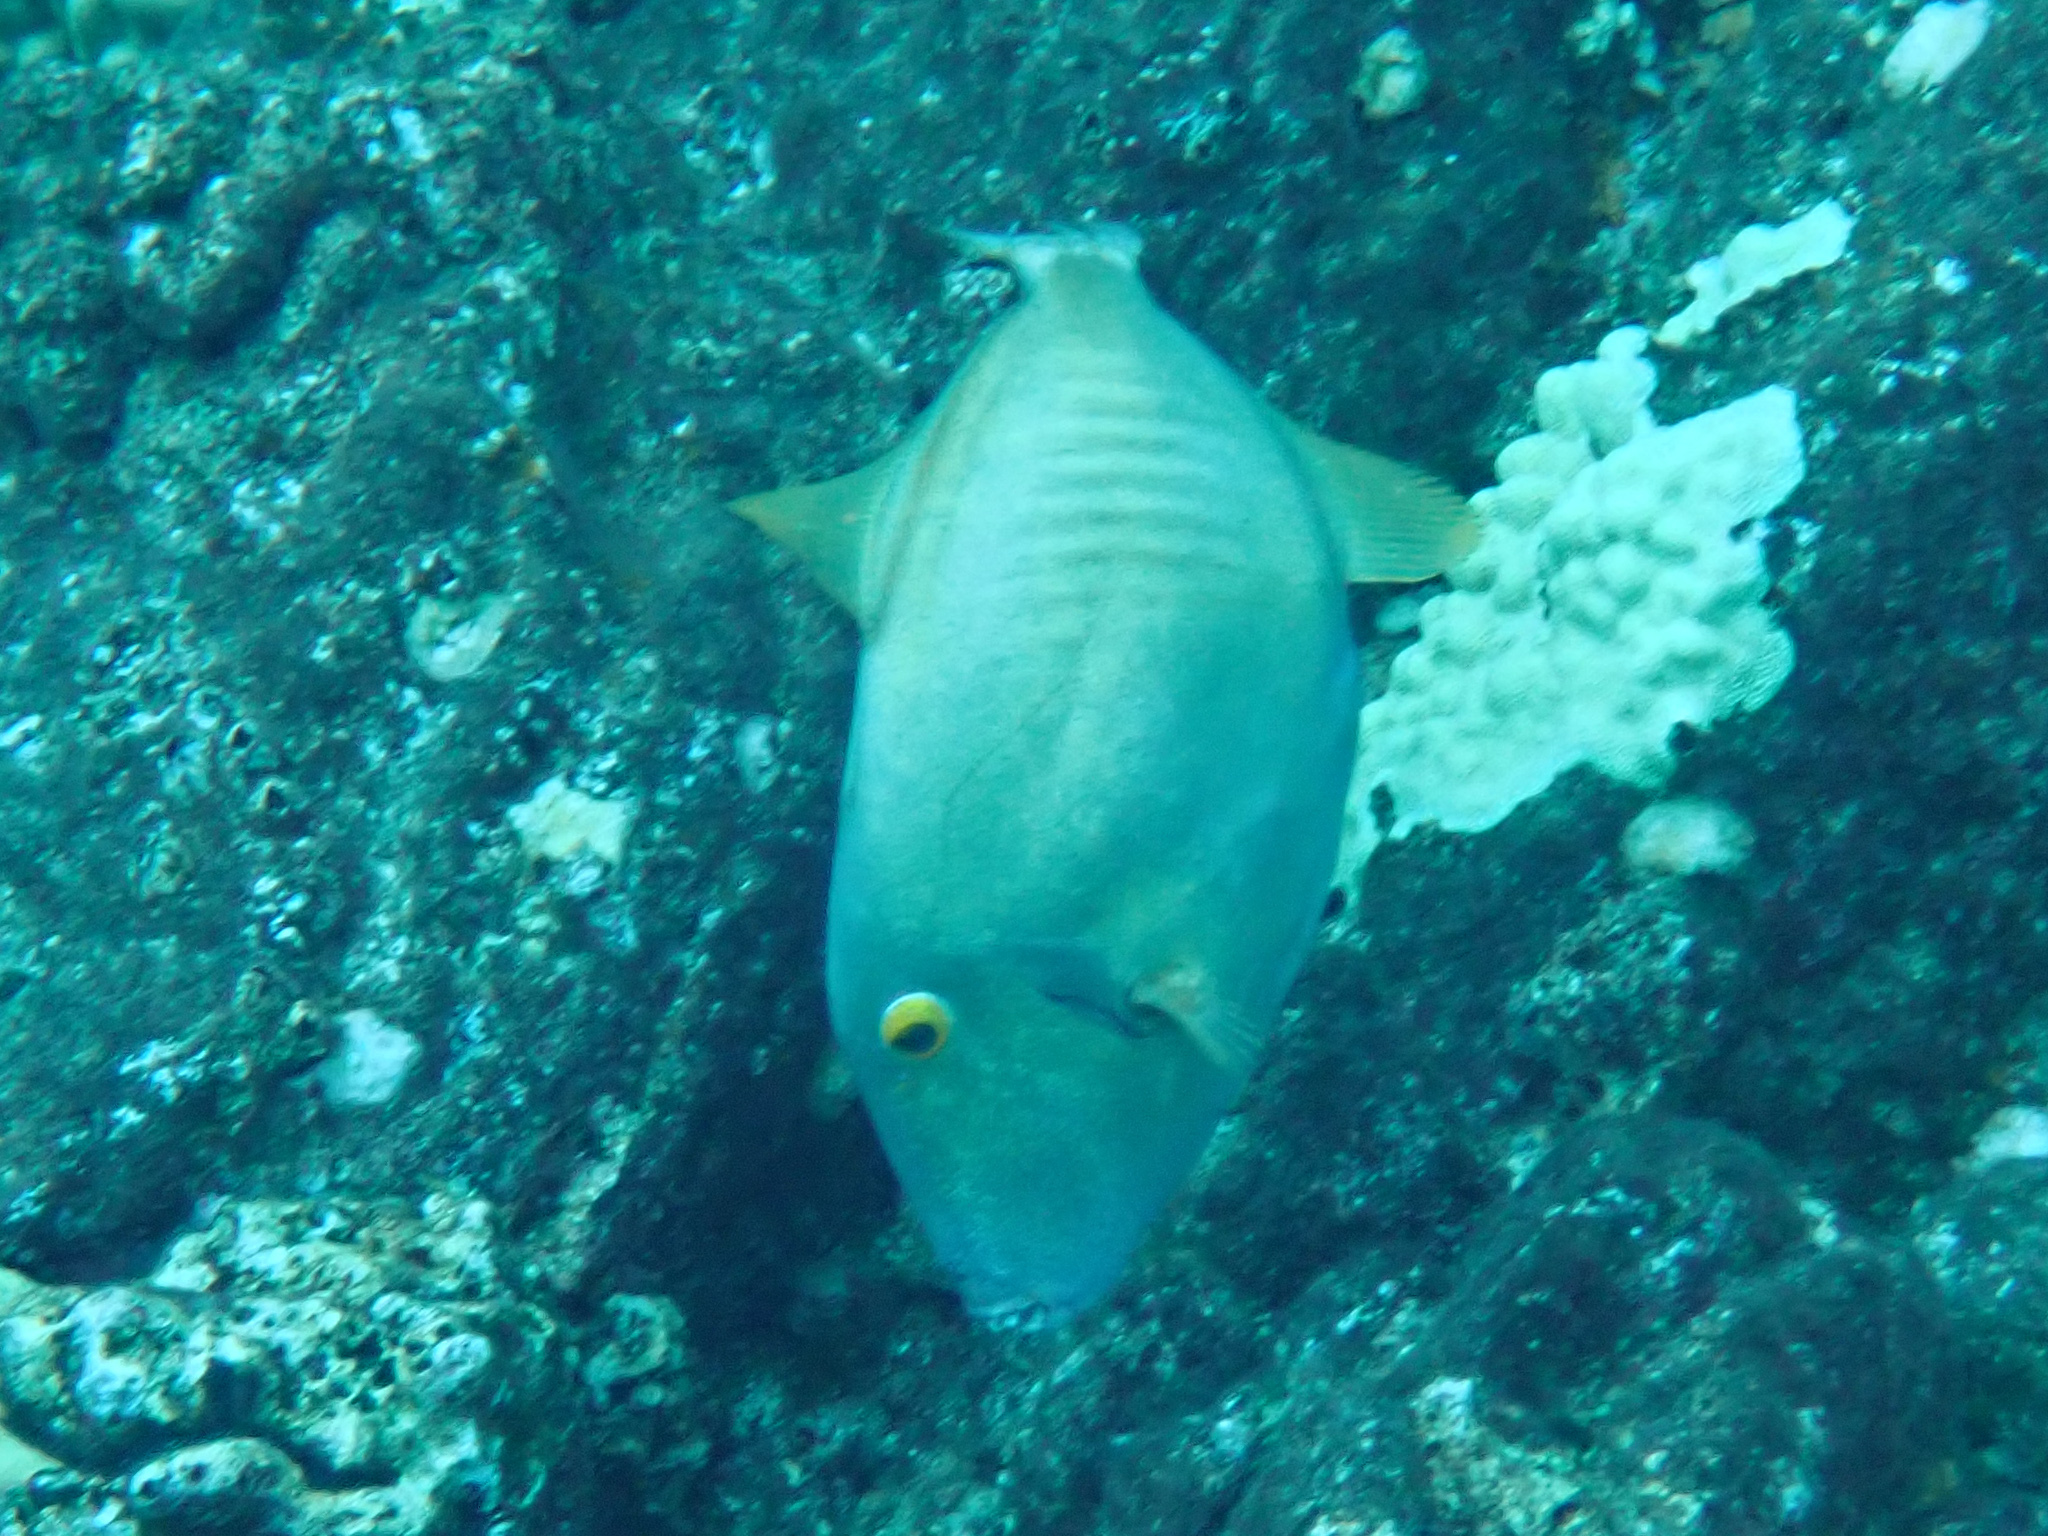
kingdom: Animalia
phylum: Chordata
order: Tetraodontiformes
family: Monacanthidae
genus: Cantherhines
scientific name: Cantherhines dumerilii
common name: Barred filefish
